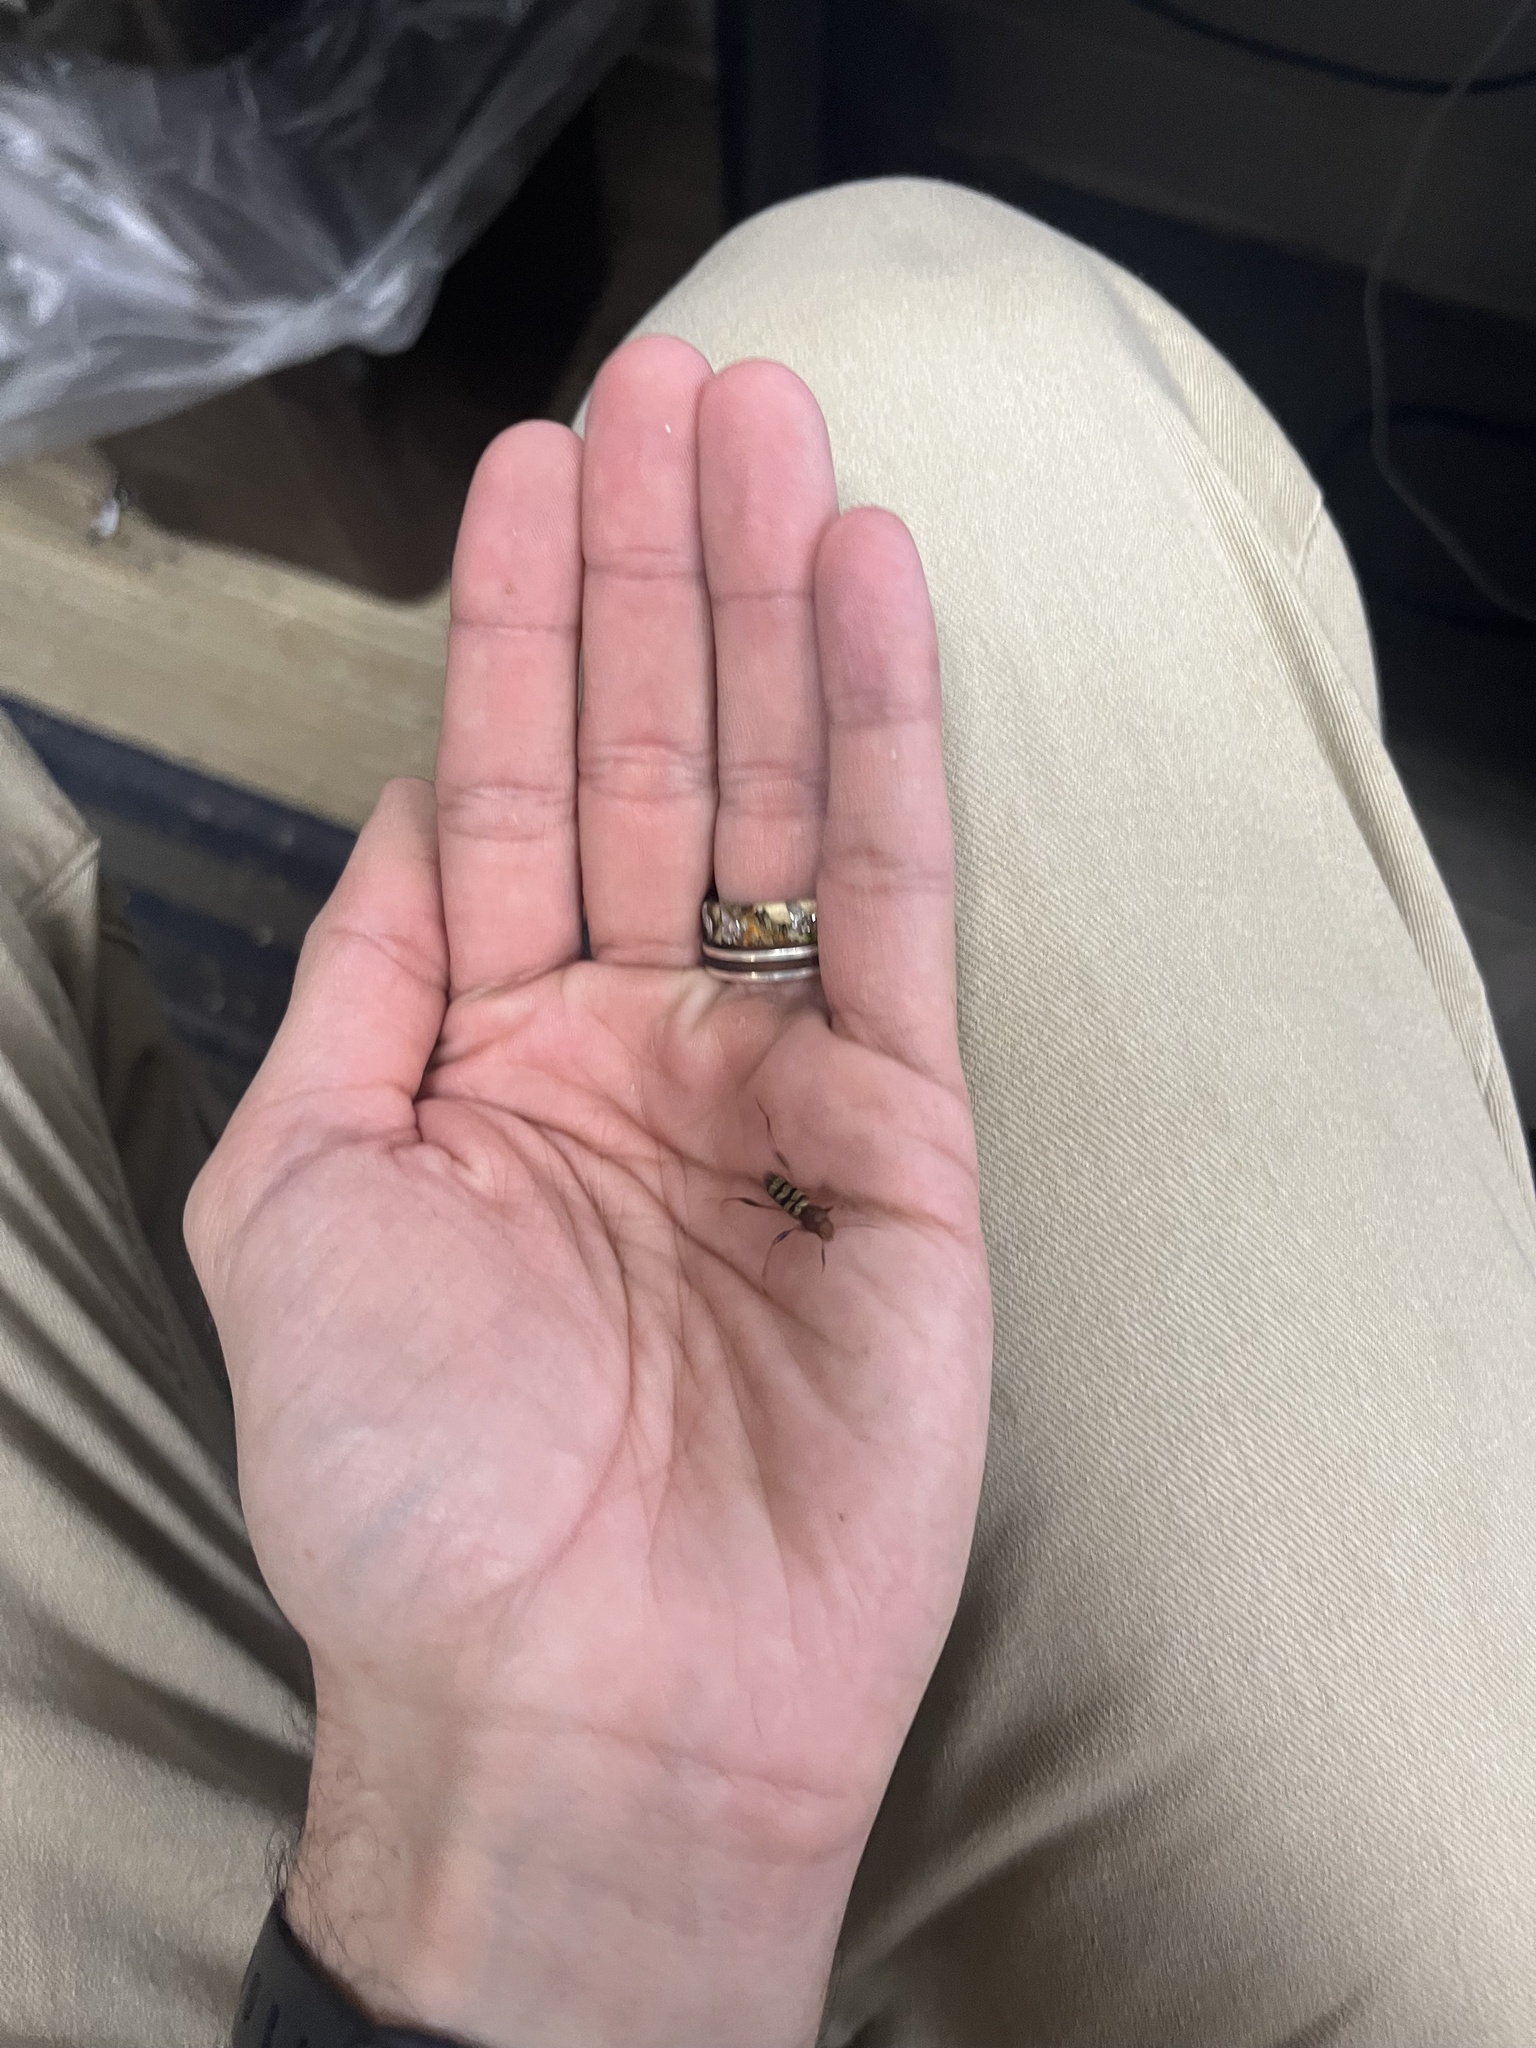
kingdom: Animalia
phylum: Arthropoda
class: Insecta
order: Coleoptera
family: Cerambycidae
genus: Neoclytus
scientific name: Neoclytus acuminatus
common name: Read-headed ash borer
